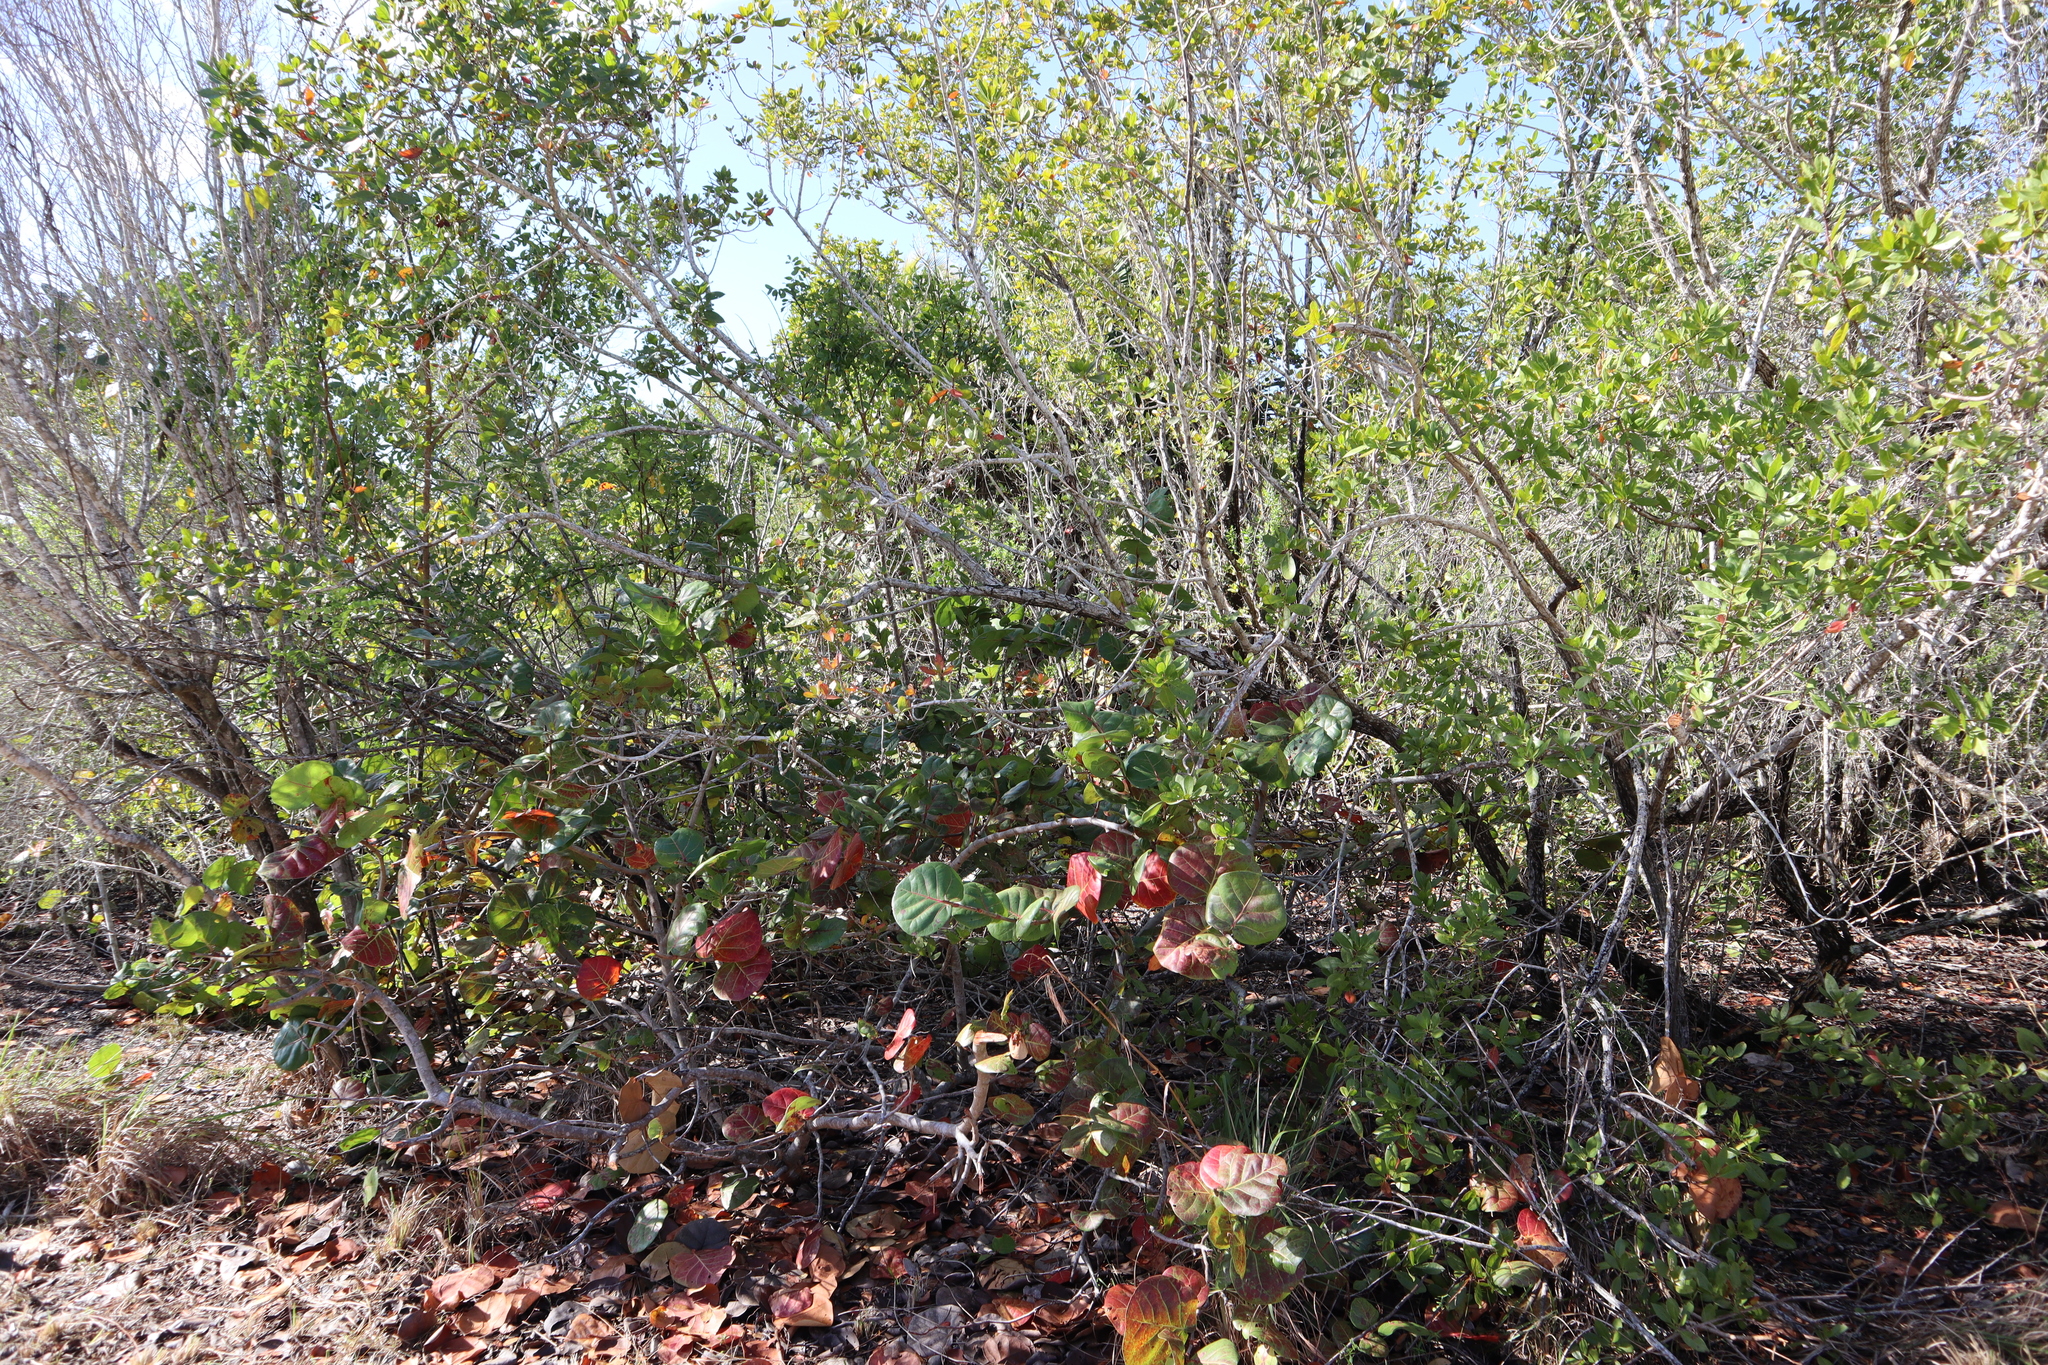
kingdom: Plantae
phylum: Tracheophyta
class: Magnoliopsida
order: Caryophyllales
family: Polygonaceae
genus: Coccoloba
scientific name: Coccoloba uvifera
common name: Seagrape
